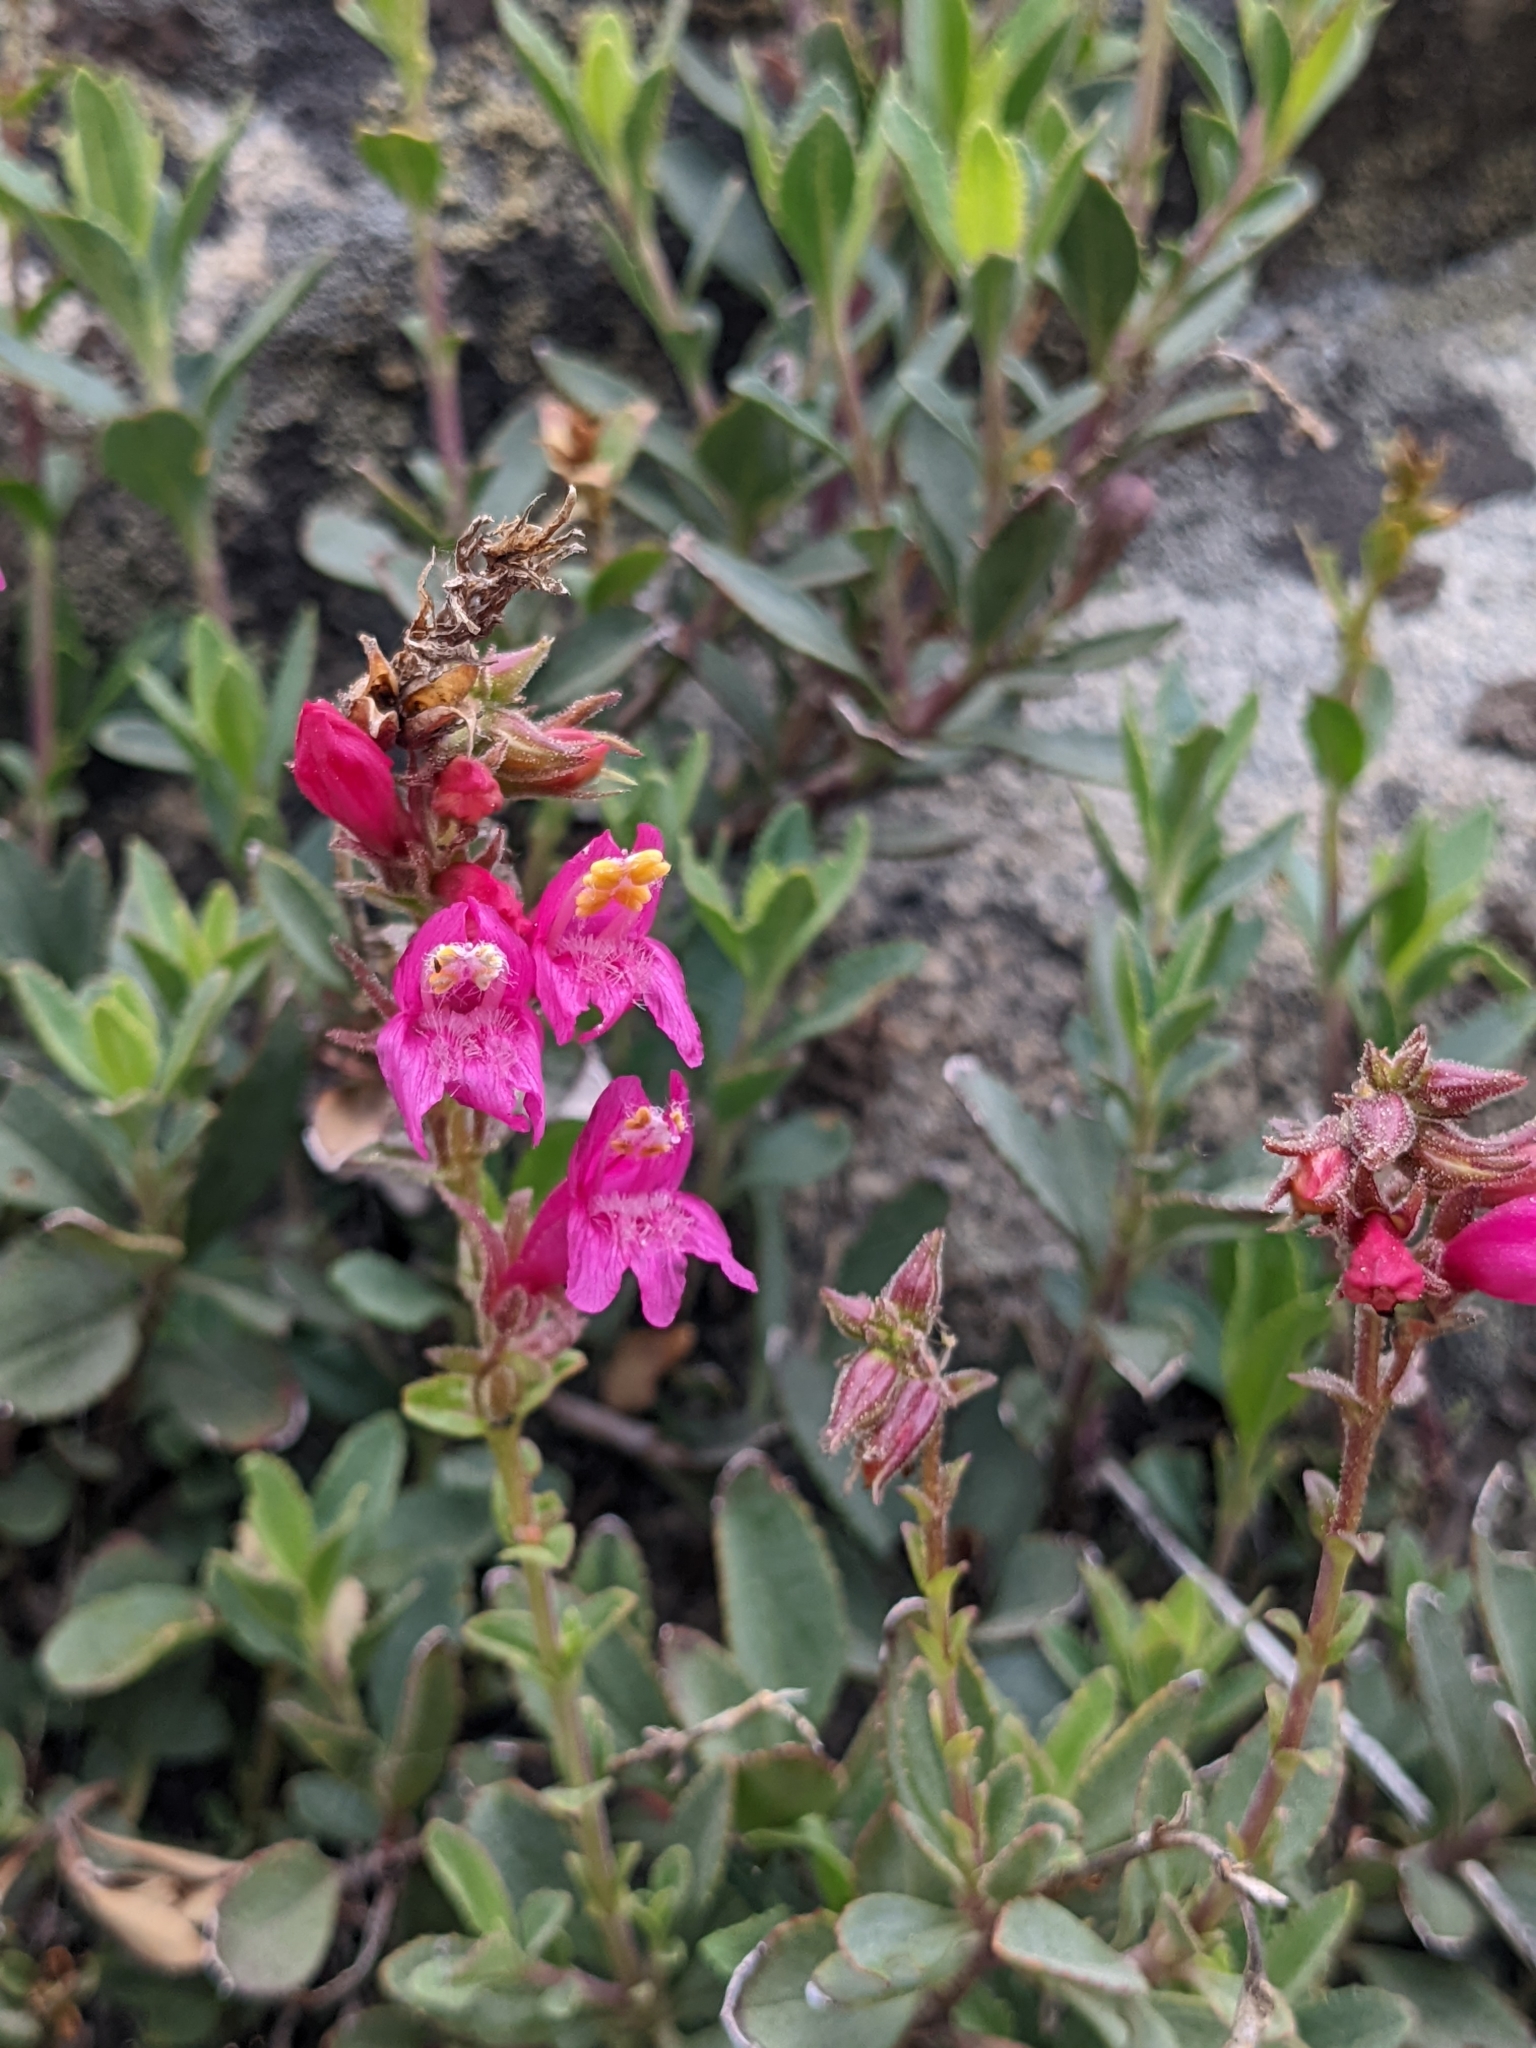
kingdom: Plantae
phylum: Tracheophyta
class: Magnoliopsida
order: Lamiales
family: Plantaginaceae
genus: Penstemon
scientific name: Penstemon newberryi
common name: Mountain-pride
